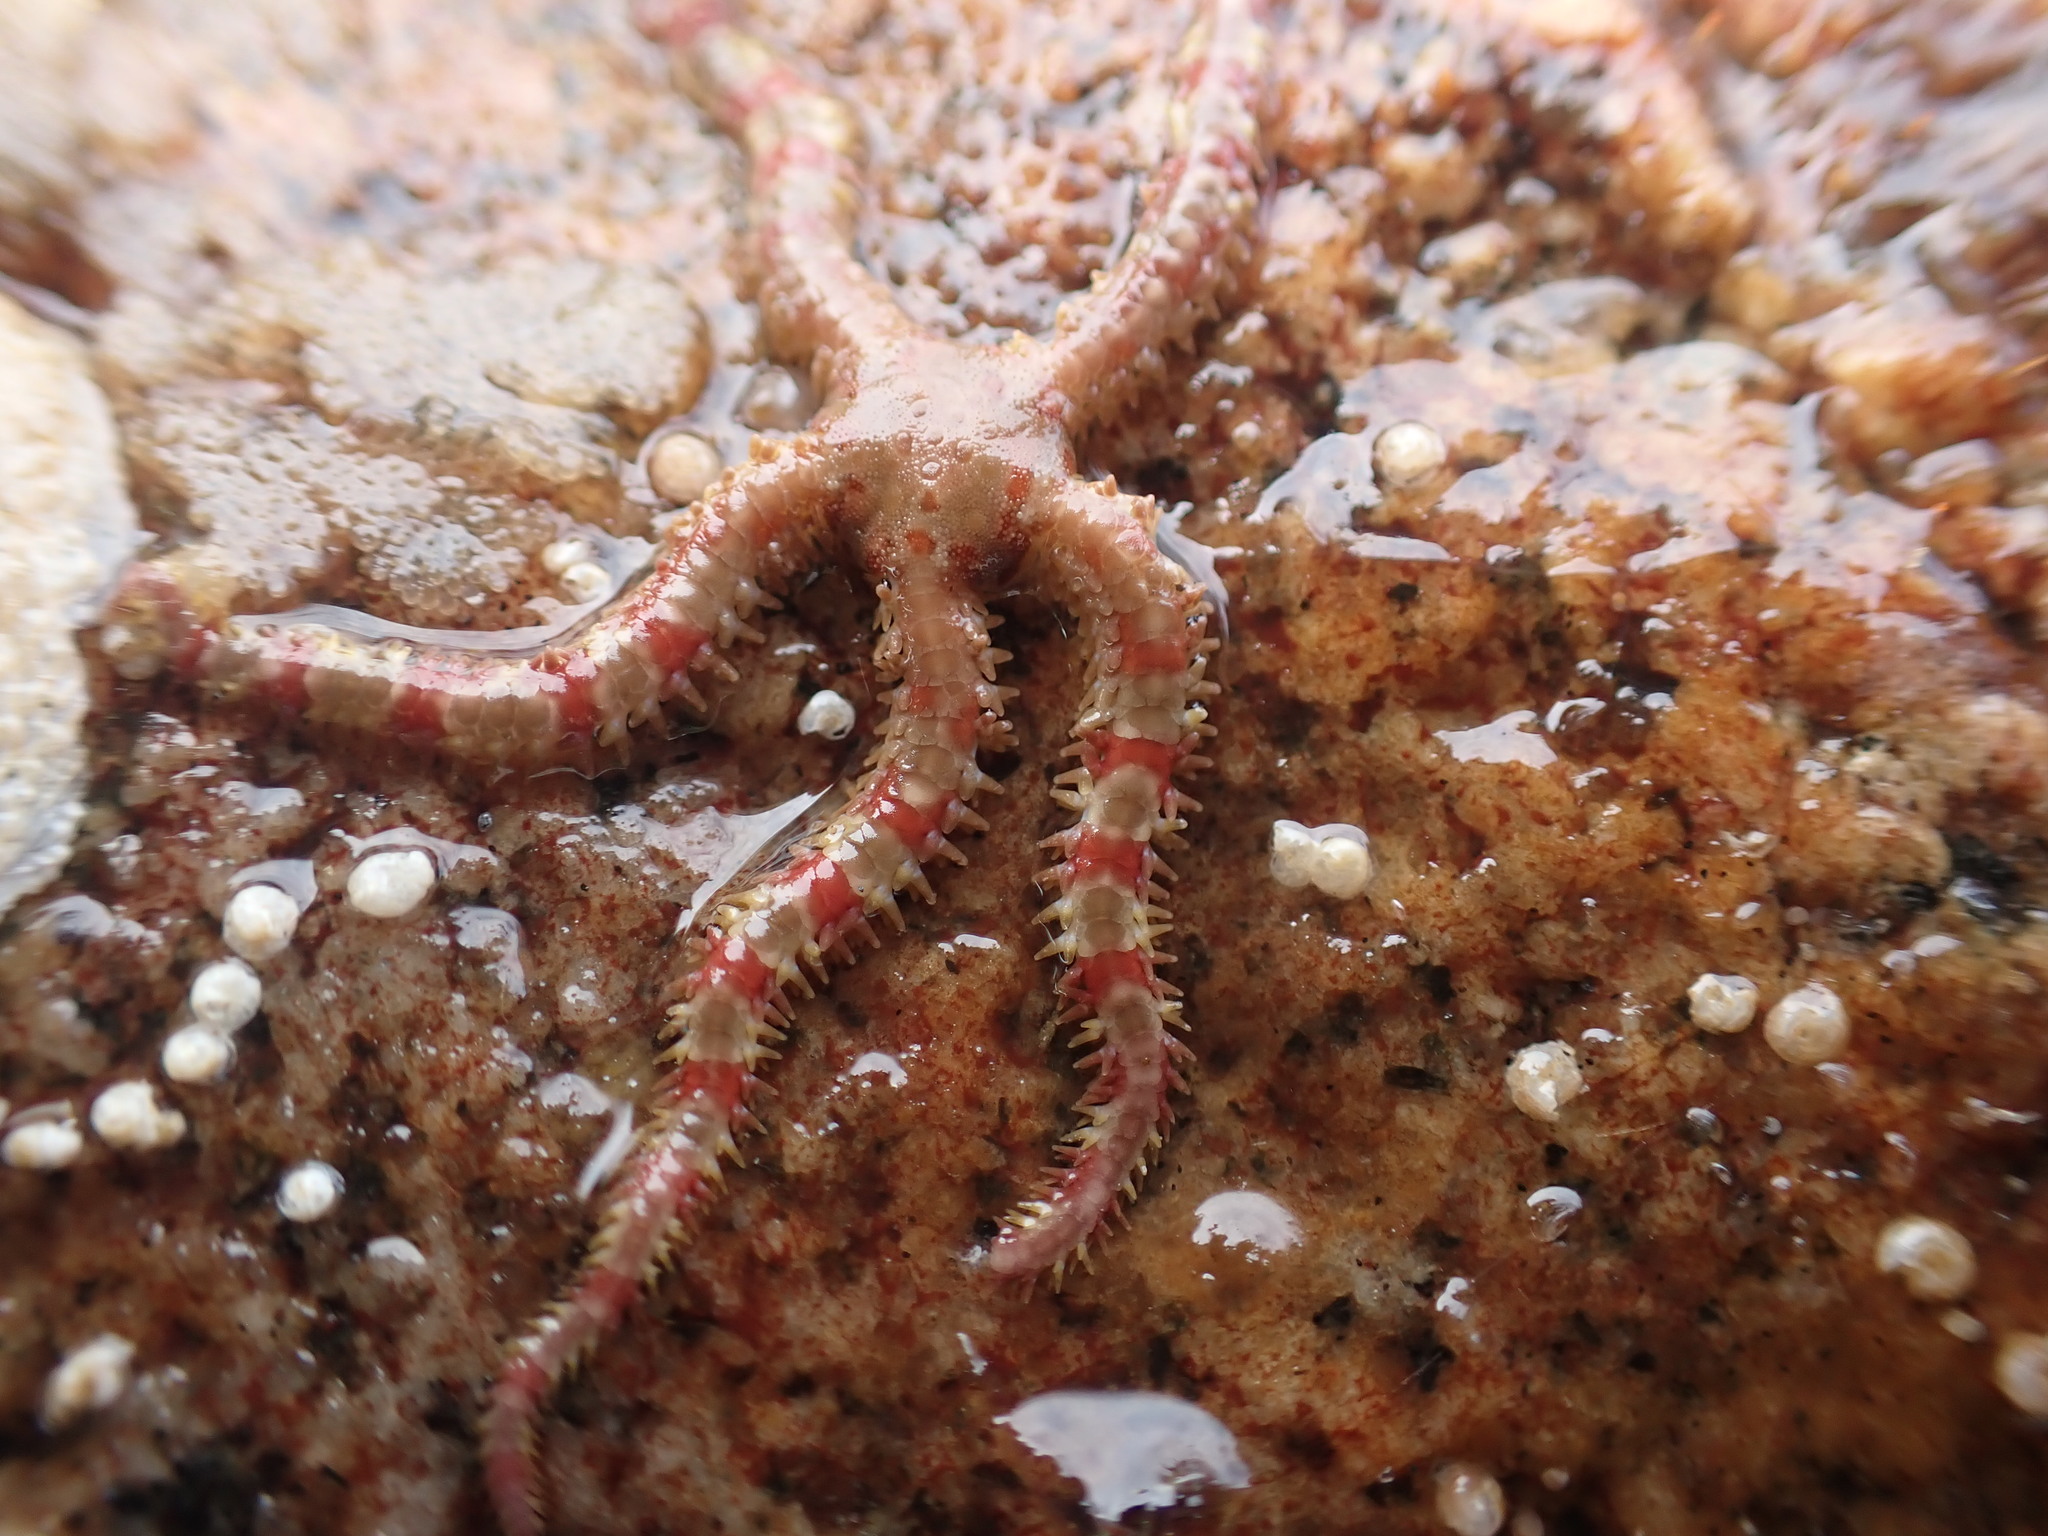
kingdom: Animalia
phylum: Echinodermata
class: Ophiuroidea
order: Amphilepidida
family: Ophiopholidae
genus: Ophiopholis
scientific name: Ophiopholis aculeata
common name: Crevice brittlestar
